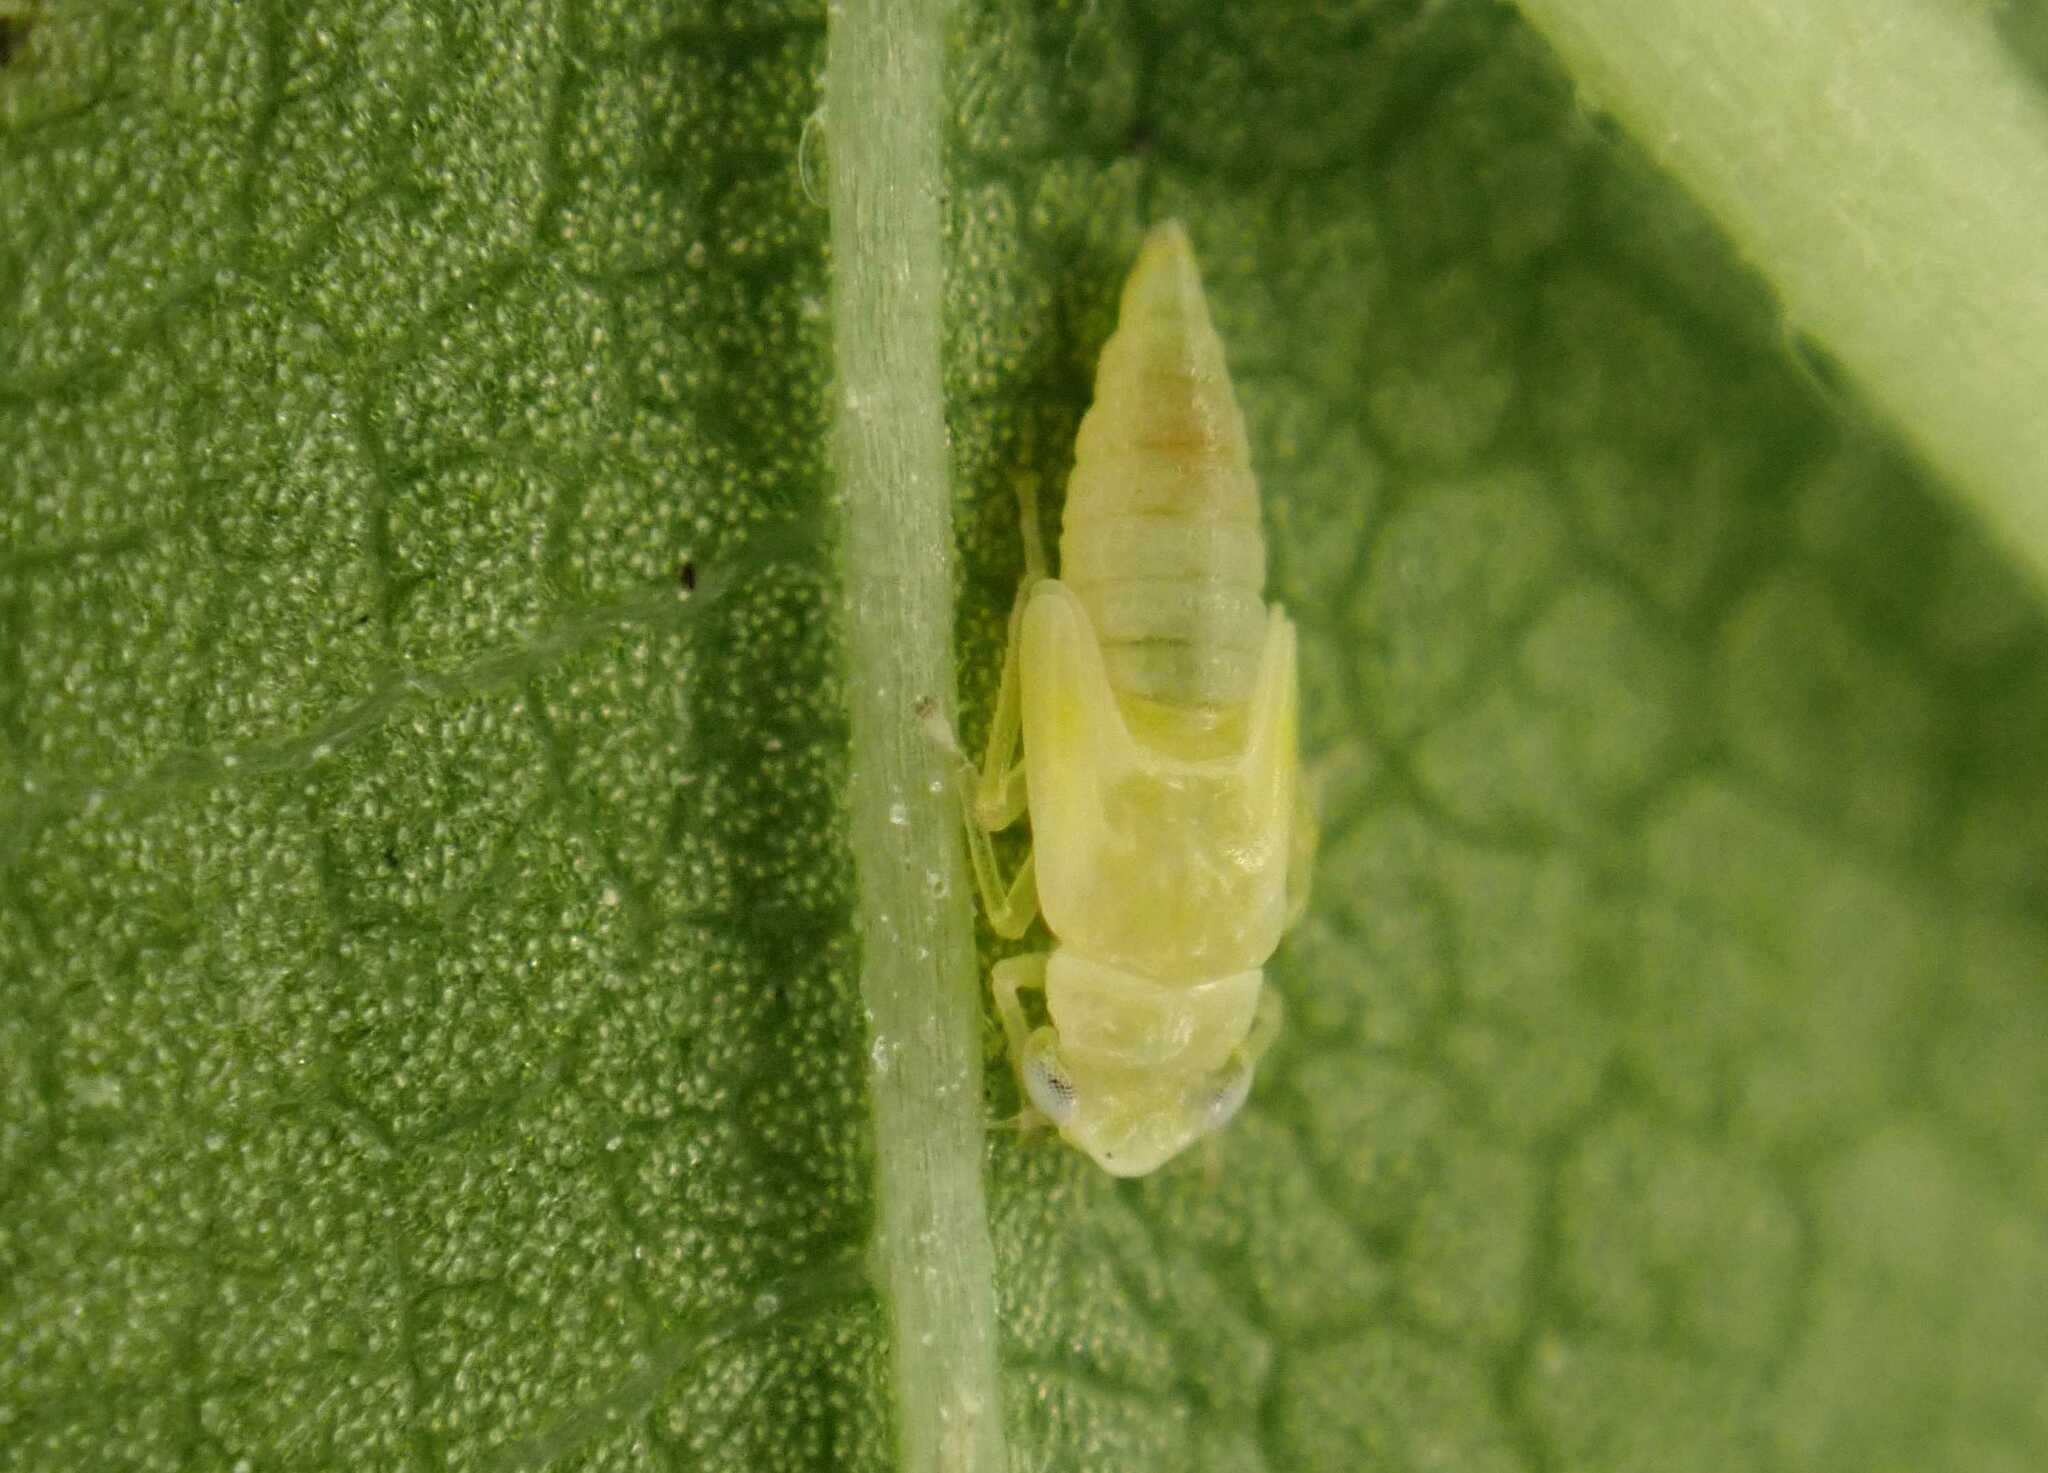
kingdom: Animalia
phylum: Arthropoda
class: Insecta
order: Hemiptera
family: Cicadellidae
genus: Tautoneura
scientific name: Tautoneura polymitusa
